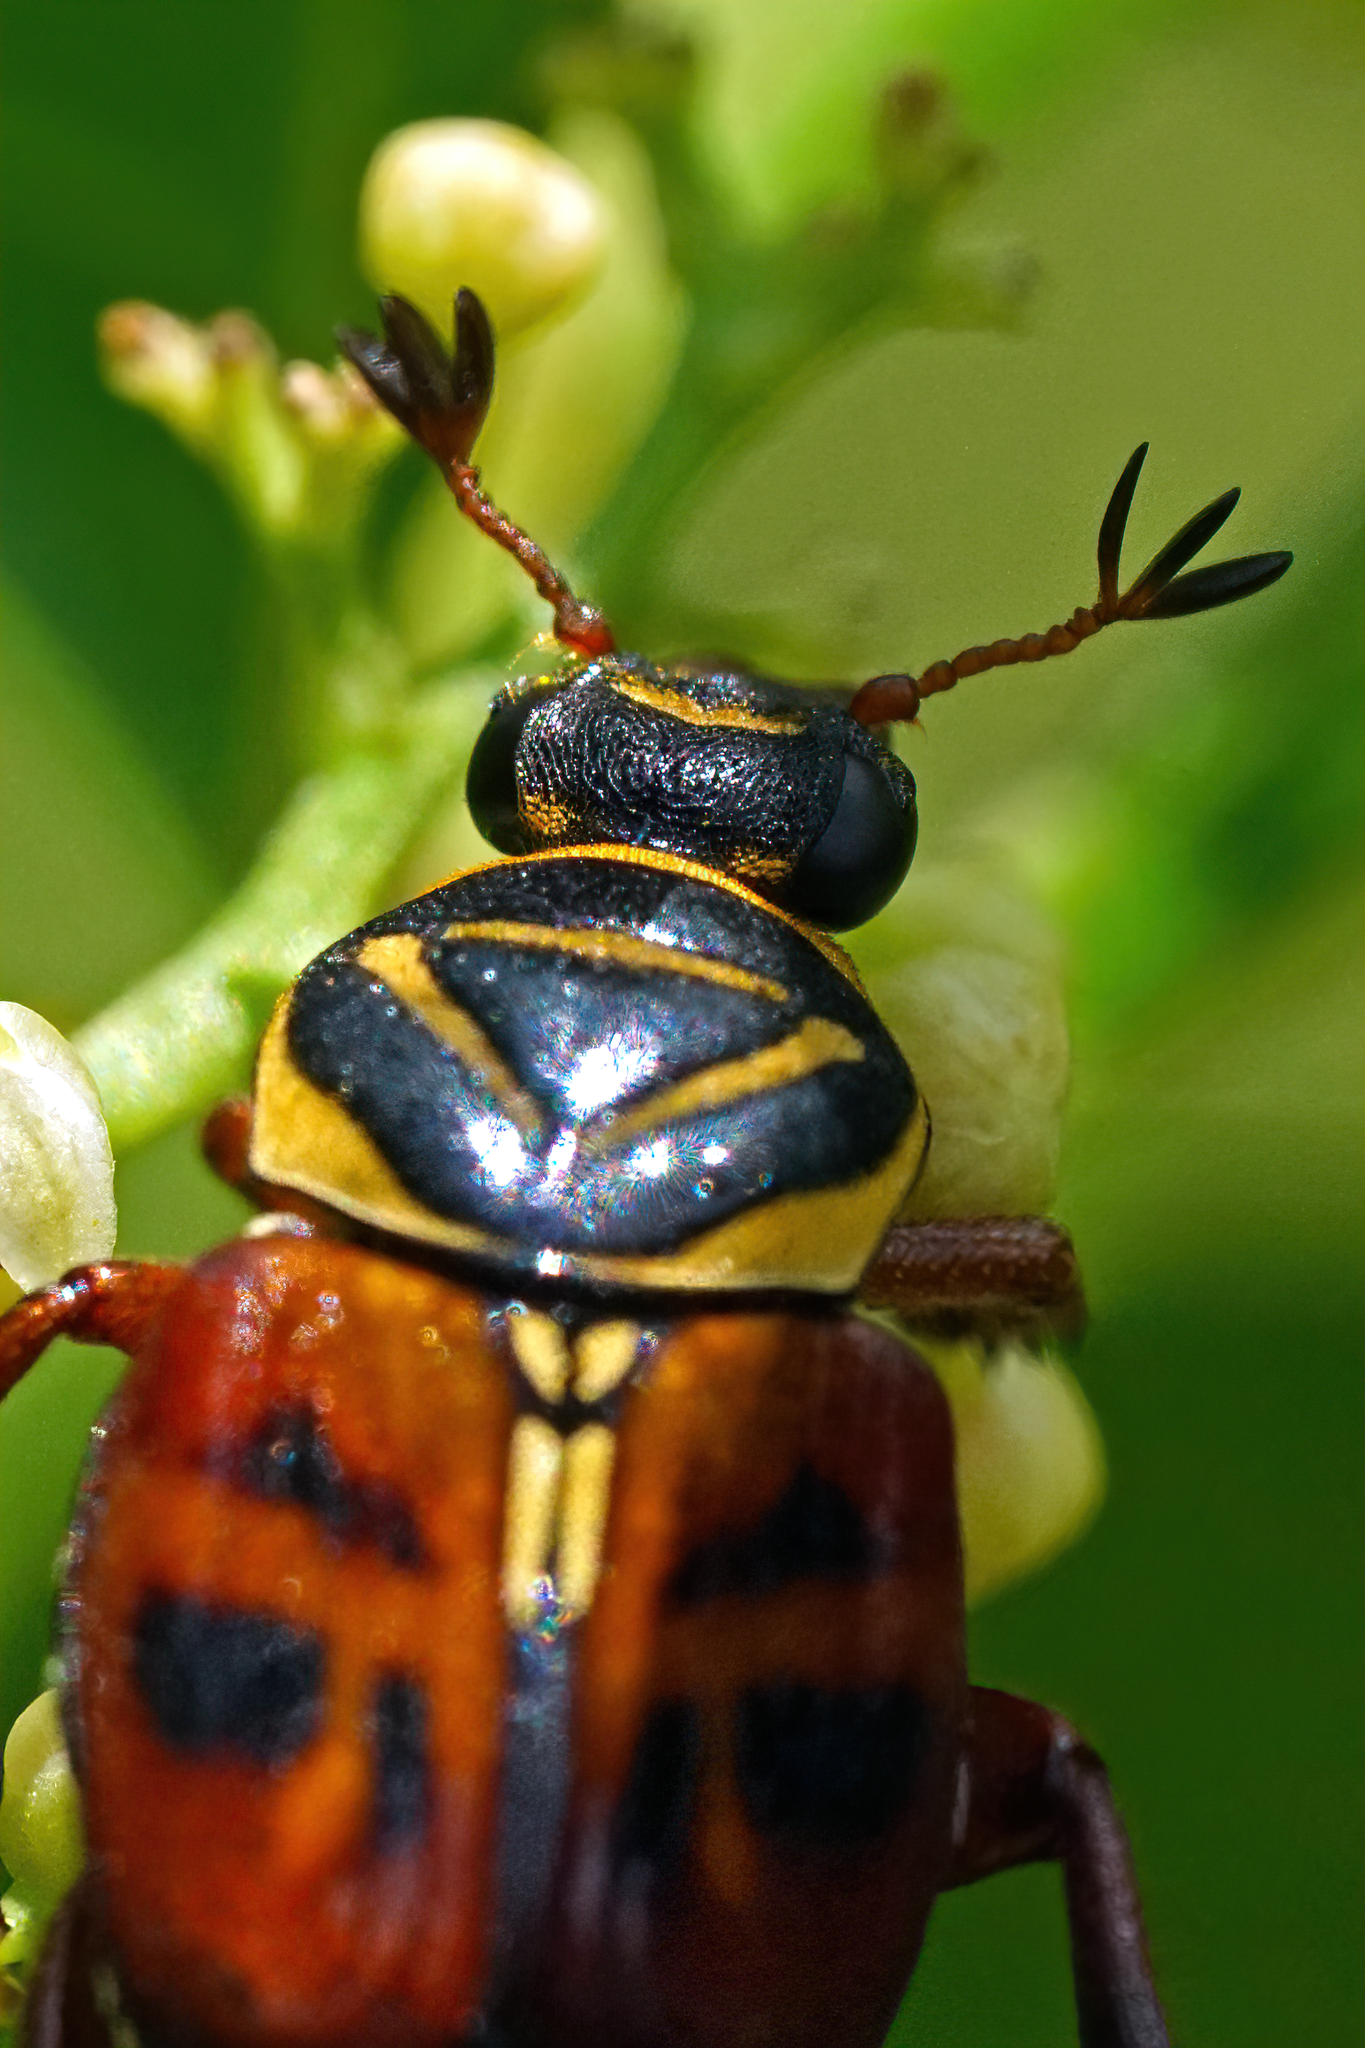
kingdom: Animalia
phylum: Arthropoda
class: Insecta
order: Coleoptera
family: Scarabaeidae
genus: Trigonopeltastes
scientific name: Trigonopeltastes delta
